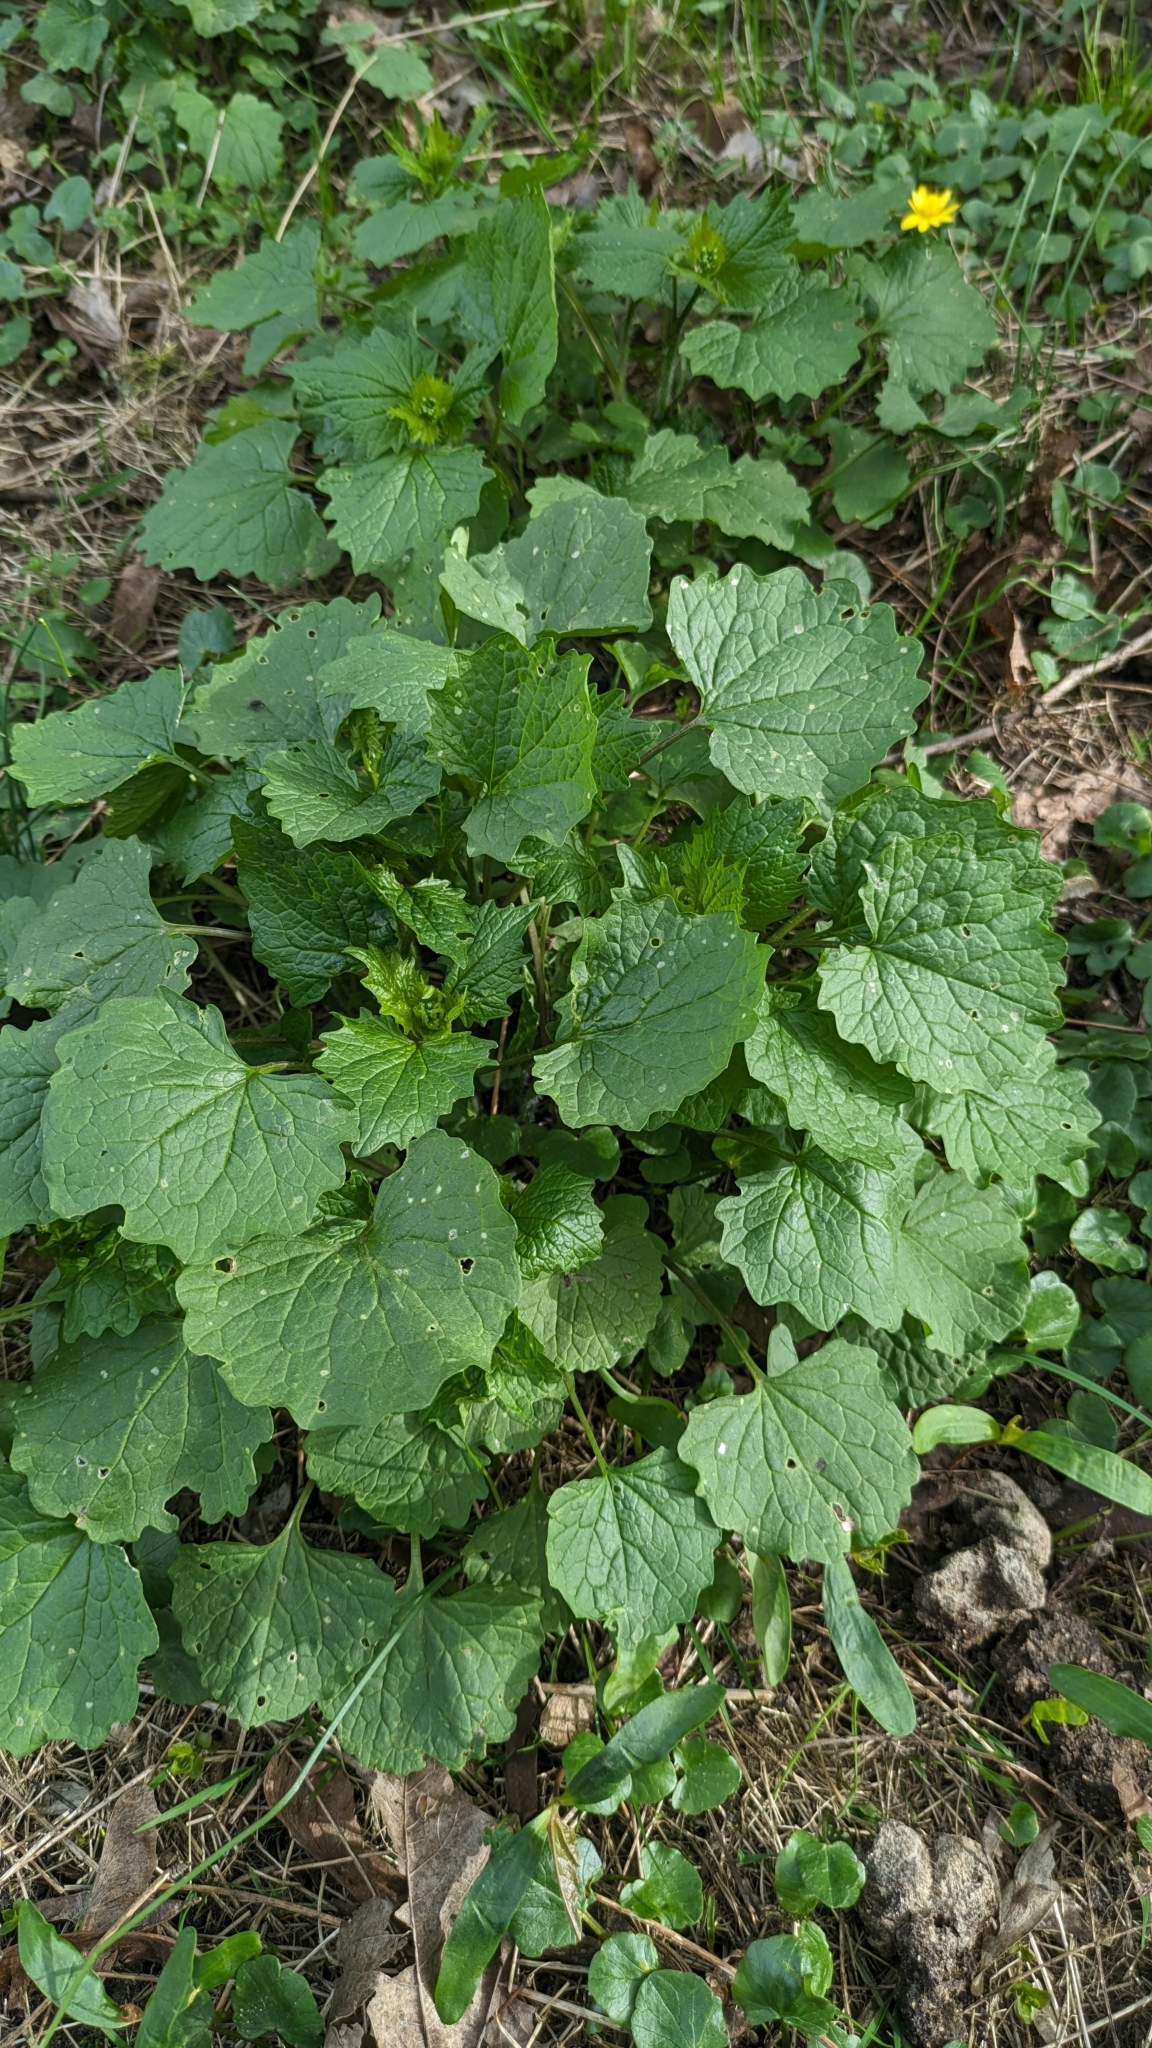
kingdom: Plantae
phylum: Tracheophyta
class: Magnoliopsida
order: Brassicales
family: Brassicaceae
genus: Alliaria
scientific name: Alliaria petiolata
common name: Garlic mustard
